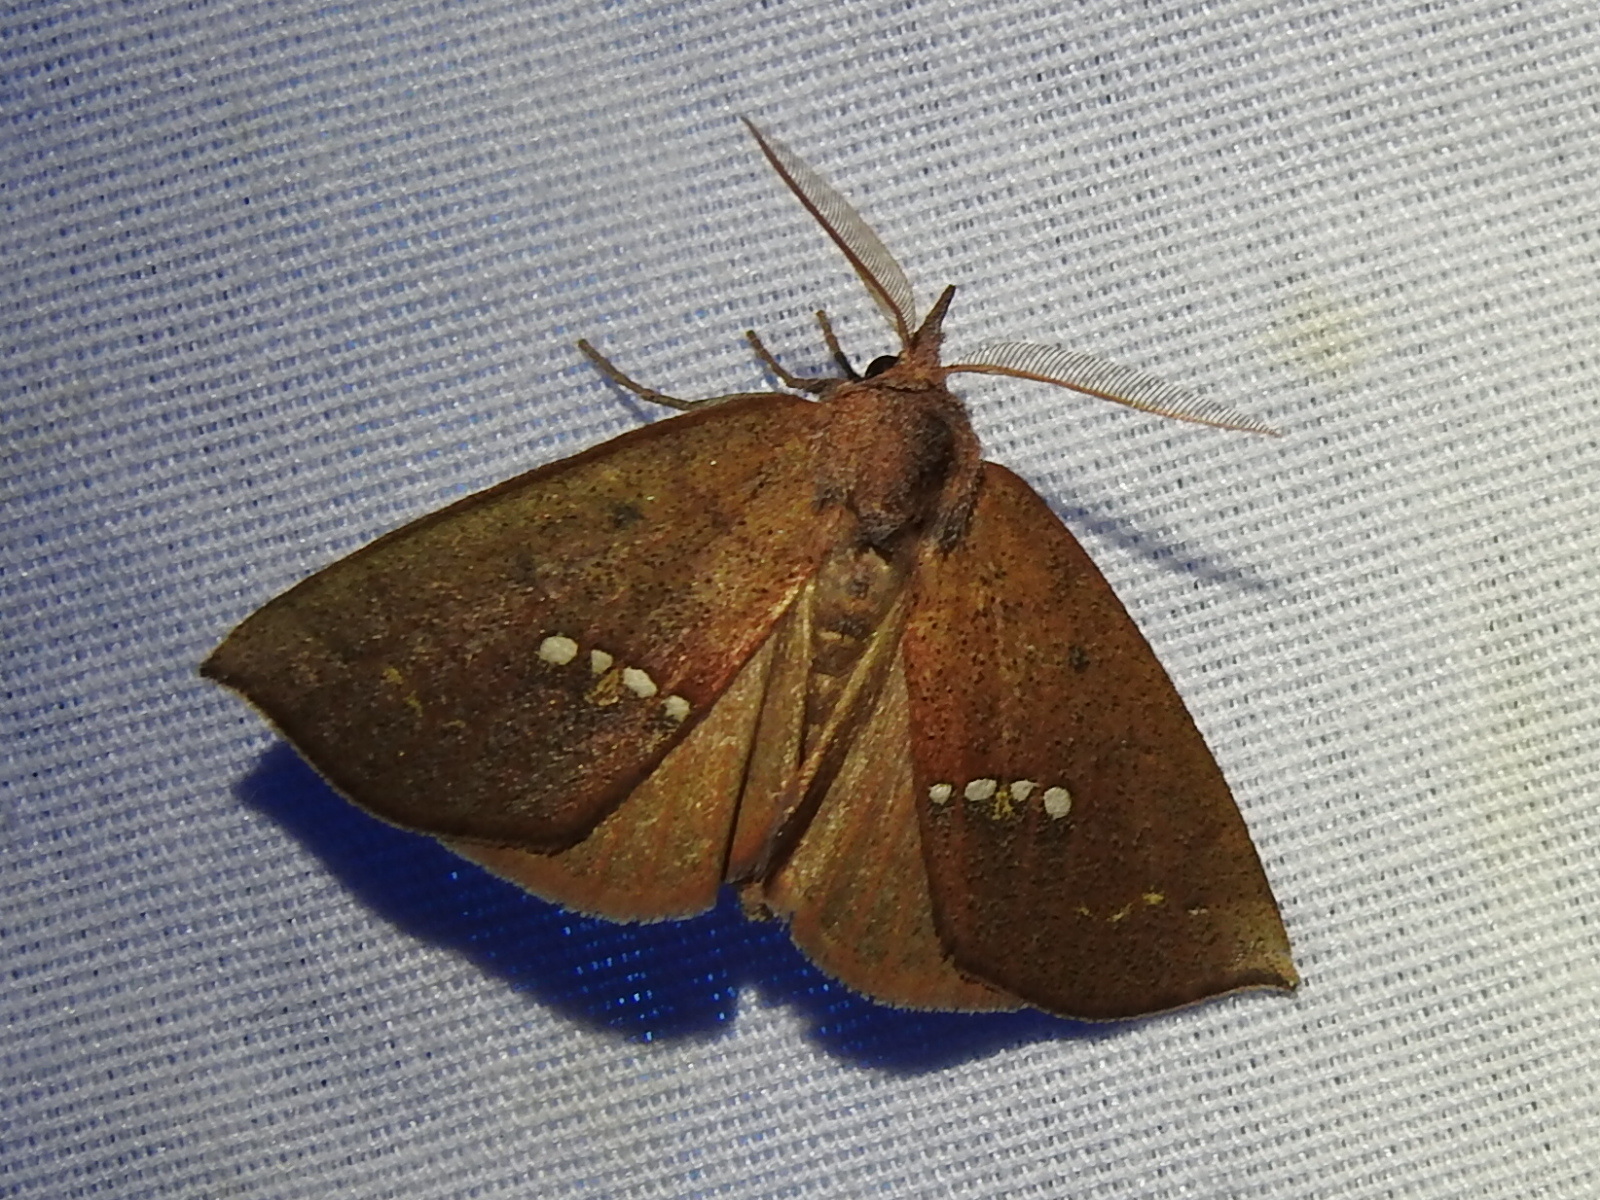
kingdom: Animalia
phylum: Arthropoda
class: Insecta
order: Lepidoptera
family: Erebidae
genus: Hypsoropha
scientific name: Hypsoropha monilis
